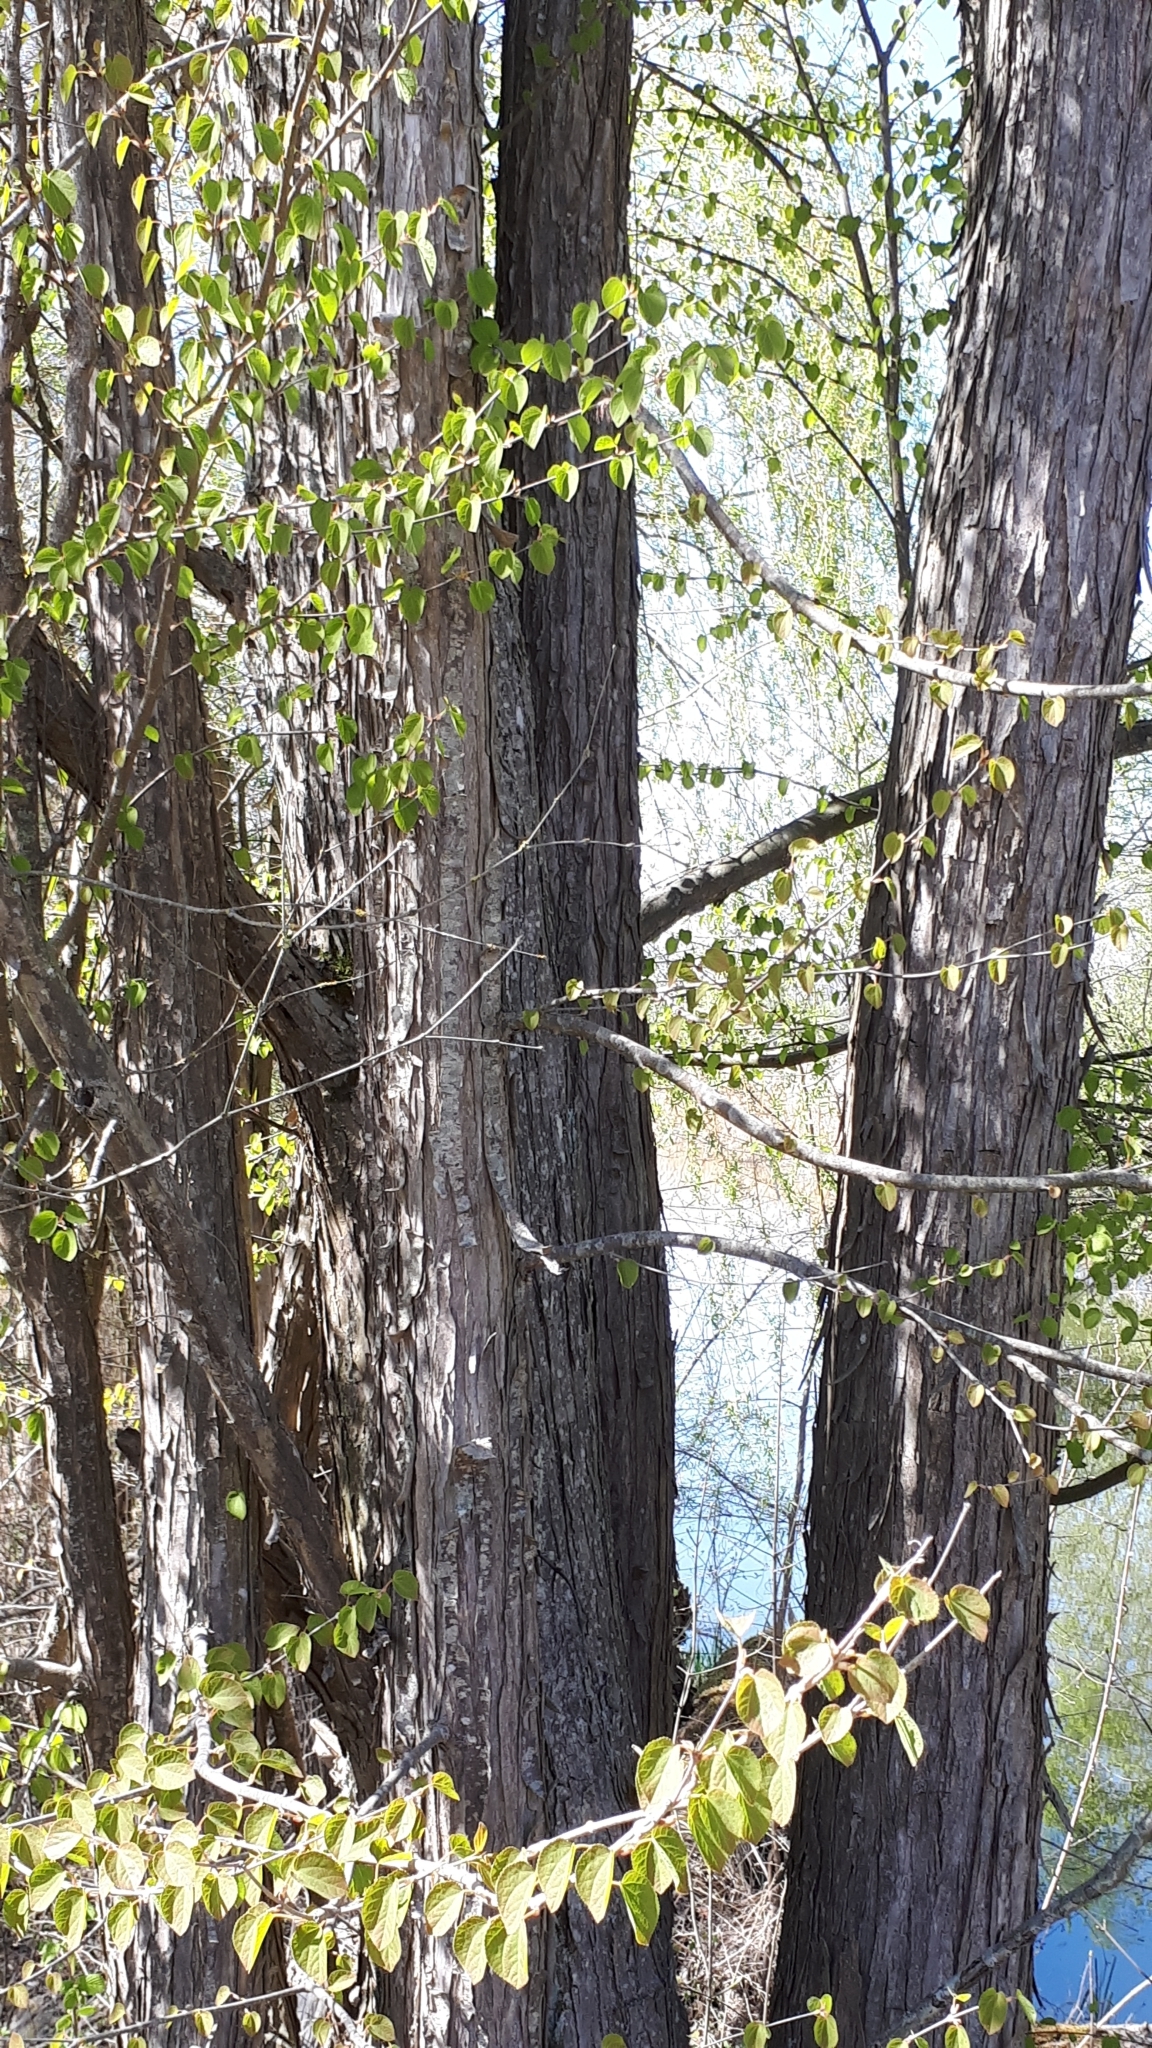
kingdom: Plantae
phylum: Tracheophyta
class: Magnoliopsida
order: Saxifragales
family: Cercidiphyllaceae
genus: Cercidiphyllum
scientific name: Cercidiphyllum japonicum
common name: Katsura tree
